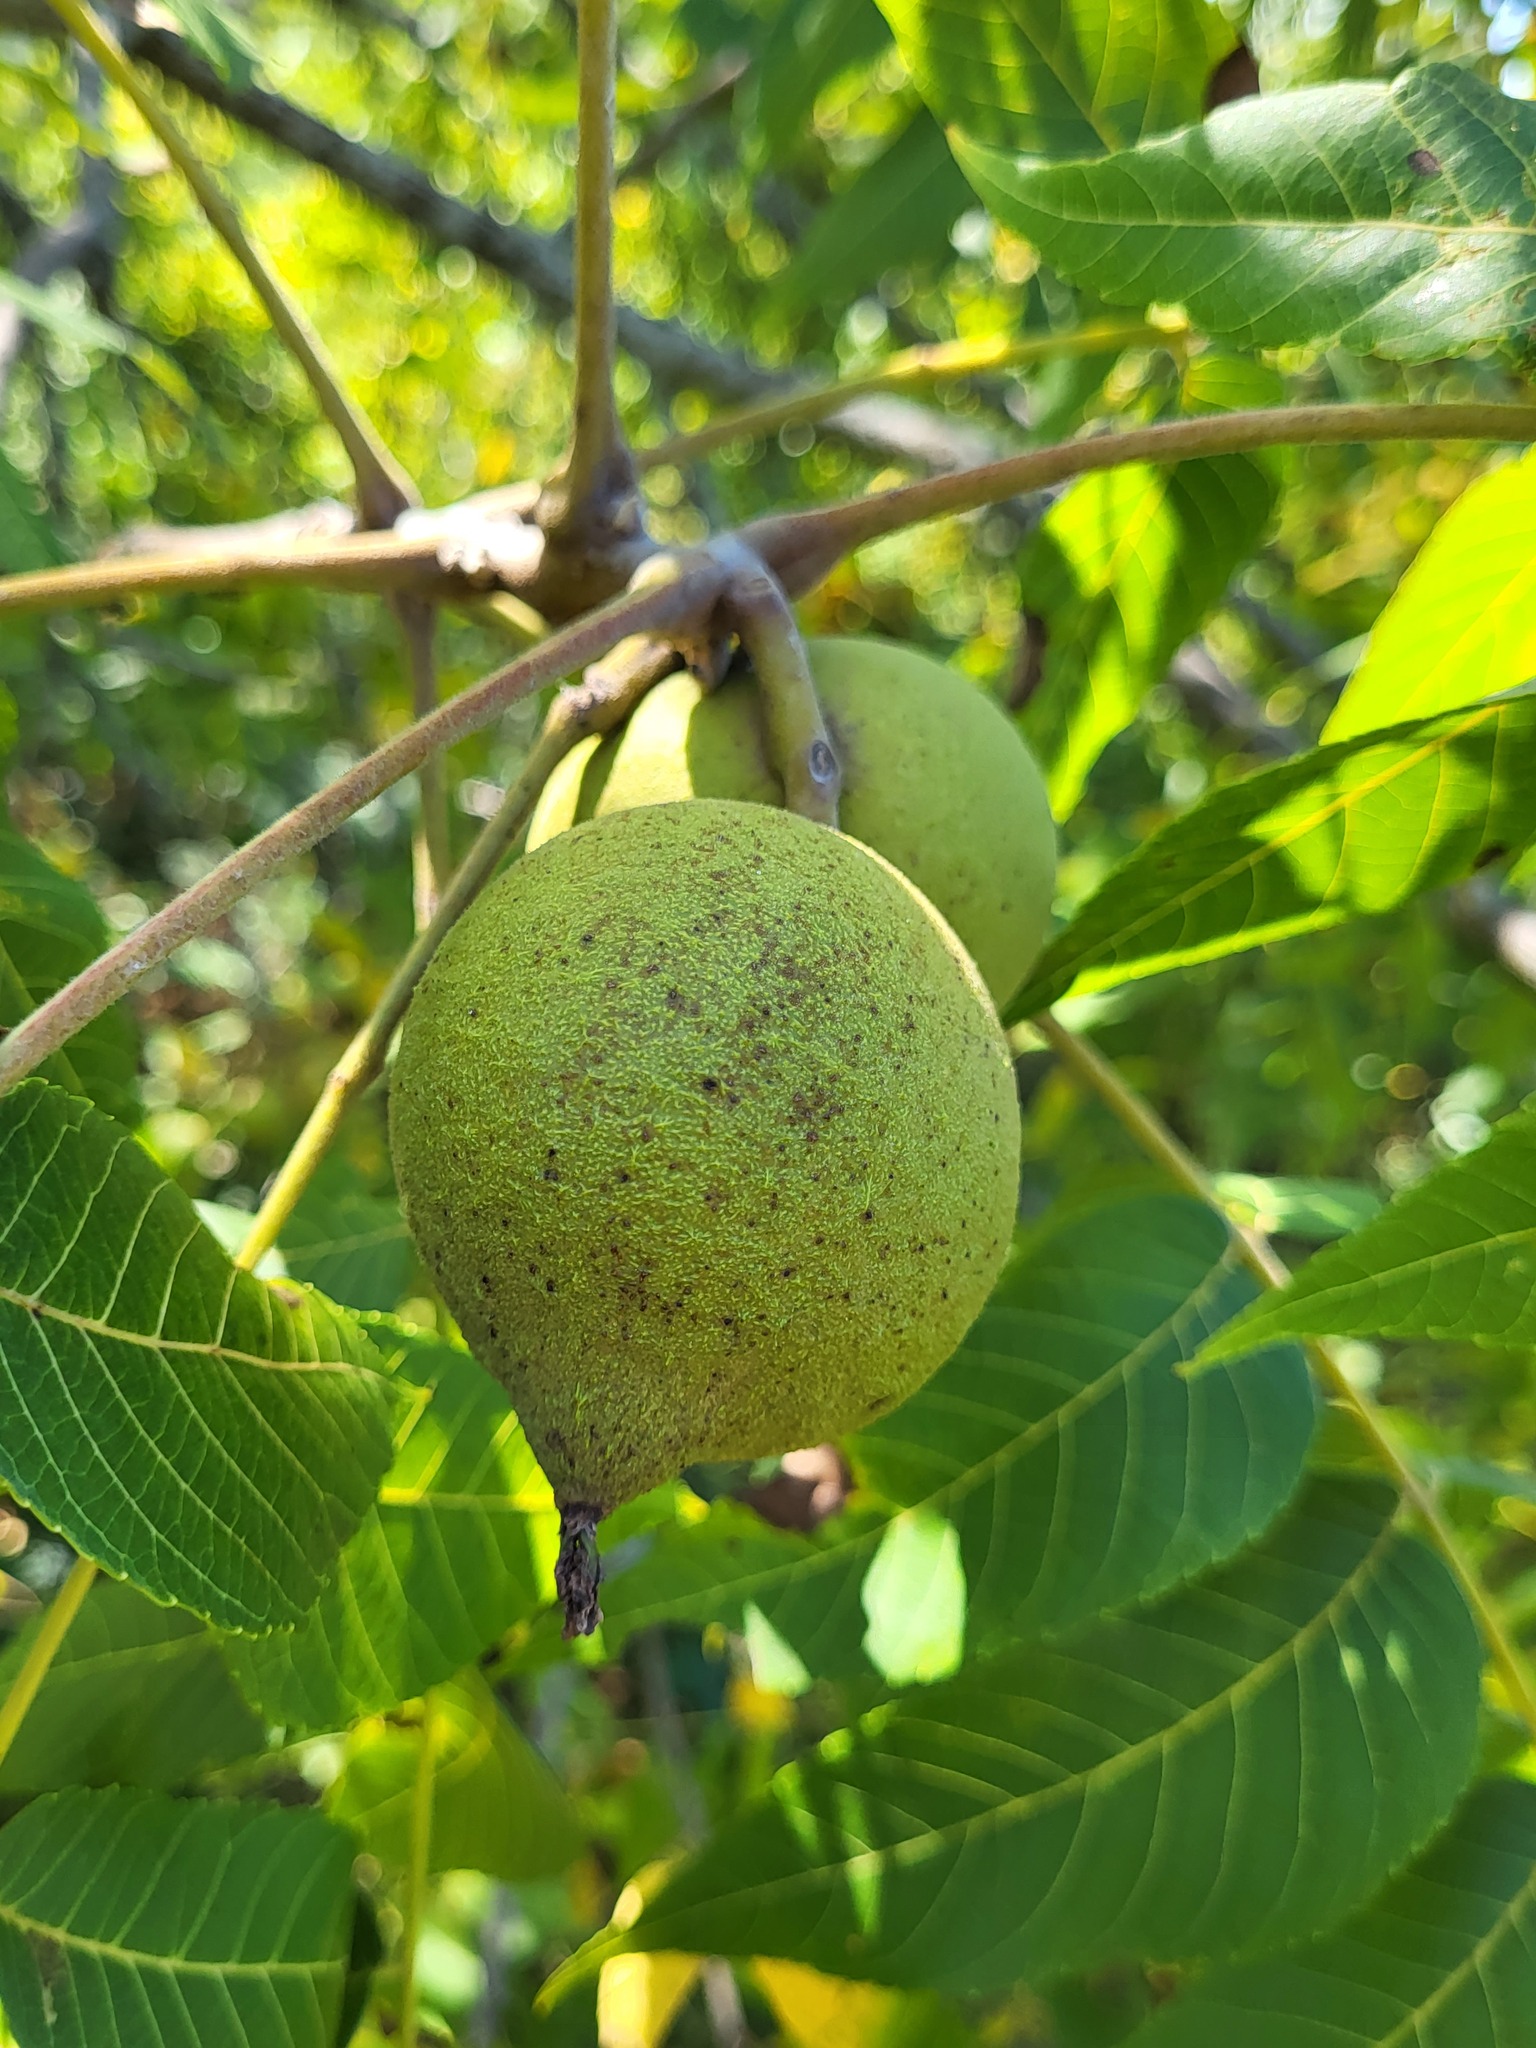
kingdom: Plantae
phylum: Tracheophyta
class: Magnoliopsida
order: Fagales
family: Juglandaceae
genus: Juglans
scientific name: Juglans nigra
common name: Black walnut
